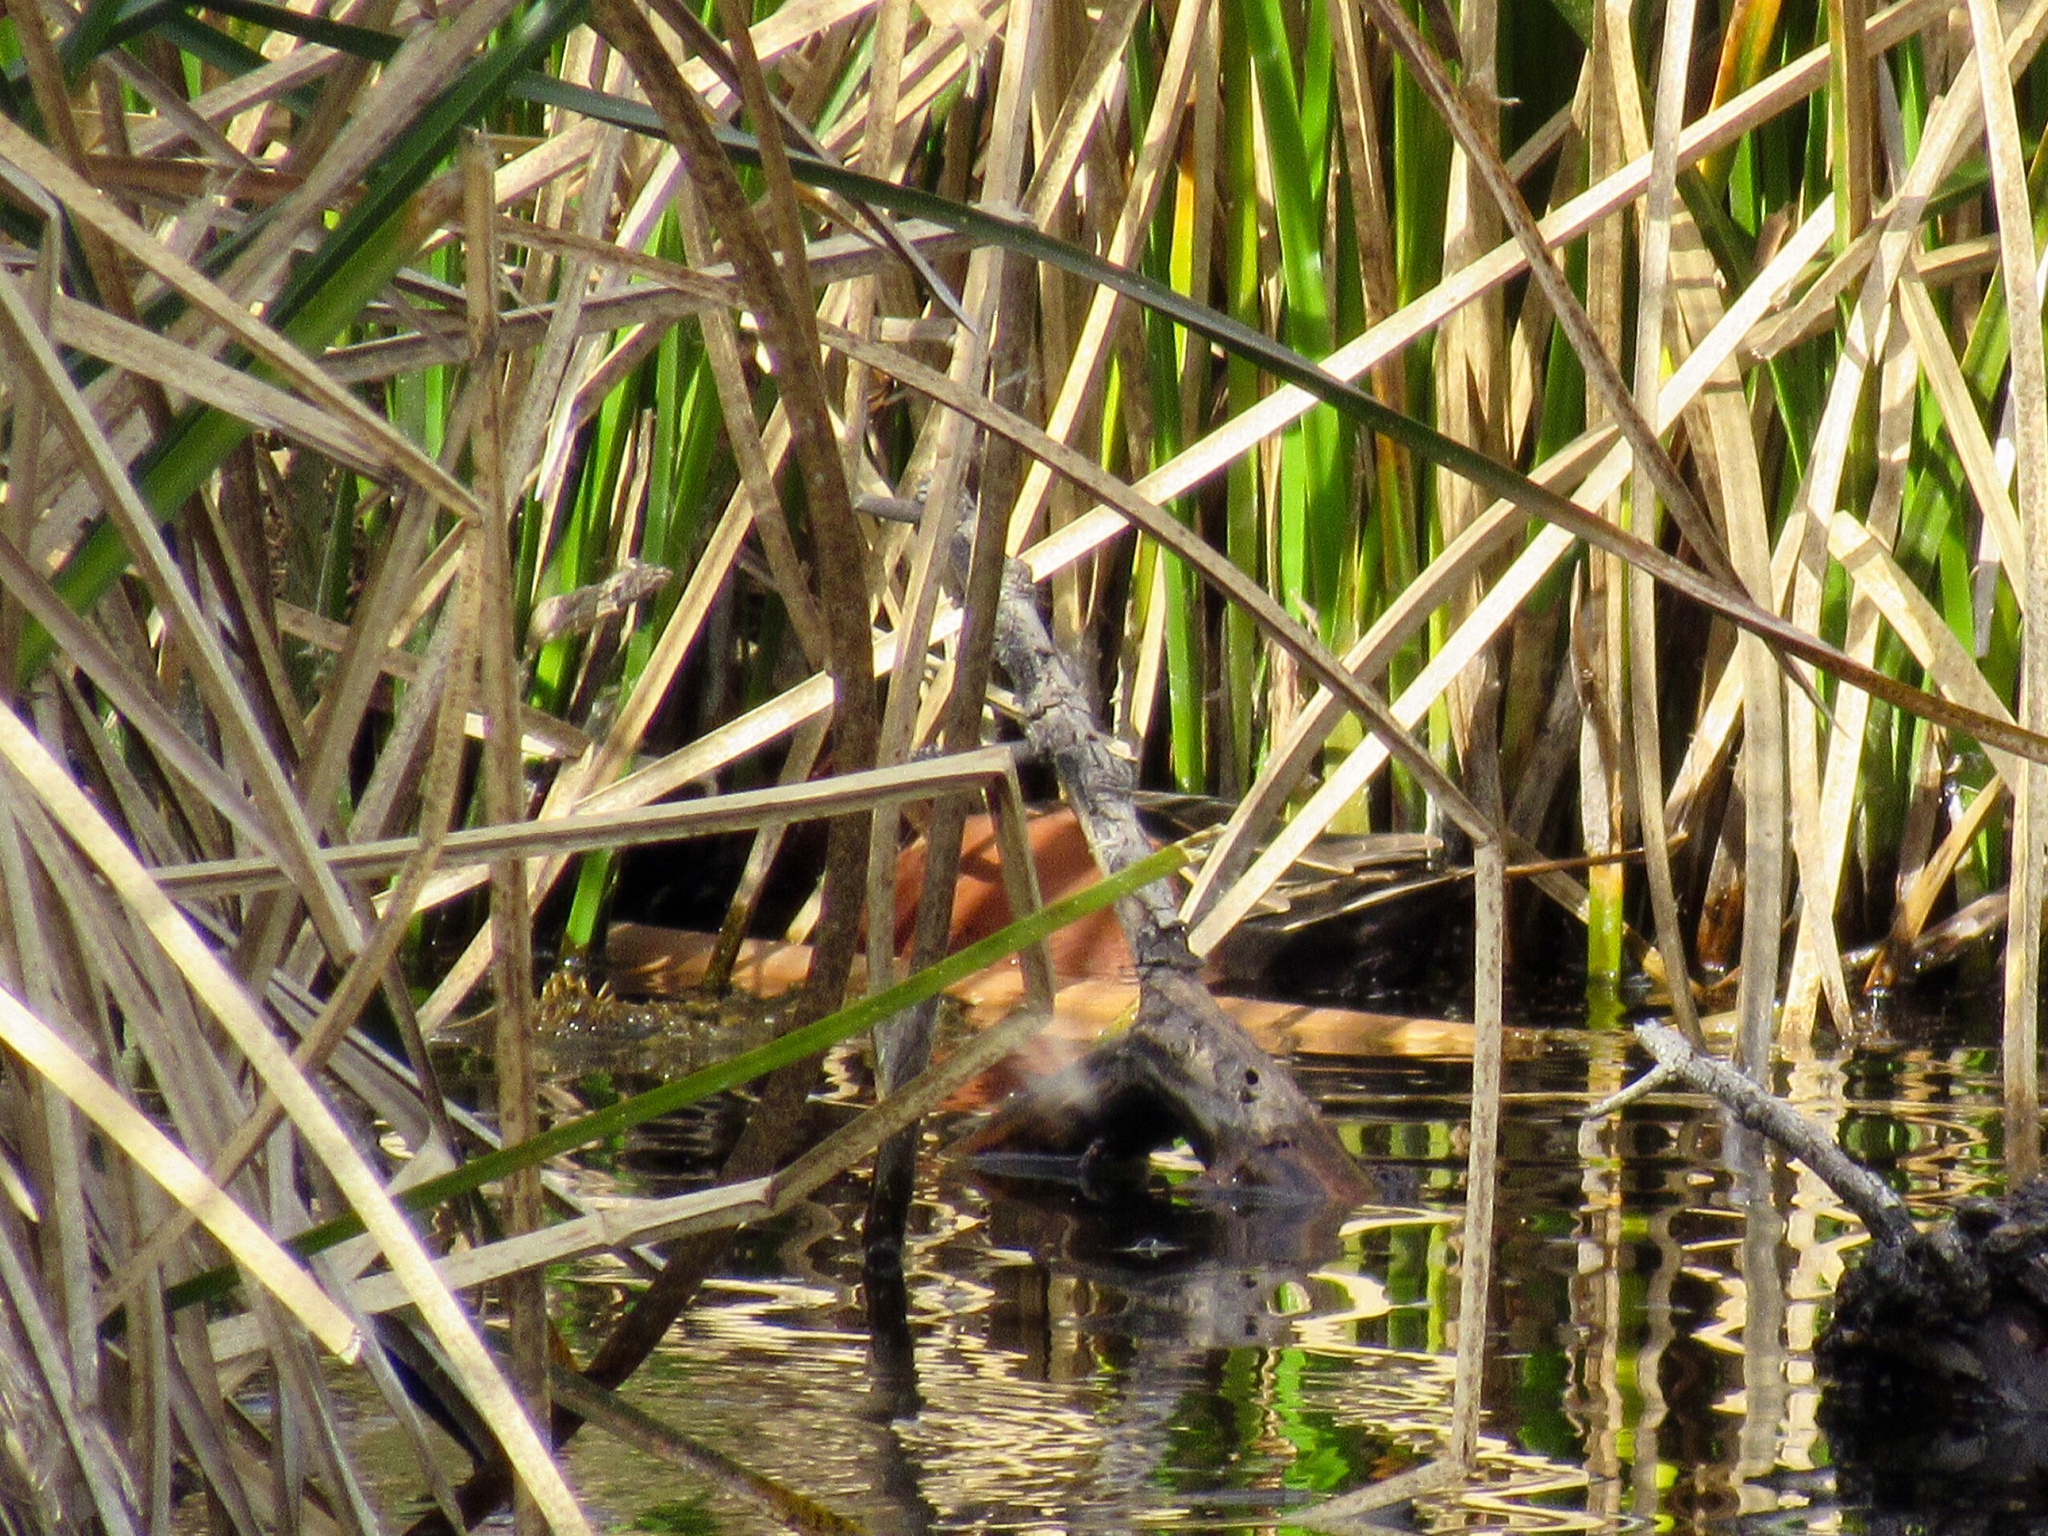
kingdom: Animalia
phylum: Chordata
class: Aves
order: Anseriformes
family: Anatidae
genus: Spatula
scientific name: Spatula cyanoptera
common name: Cinnamon teal
